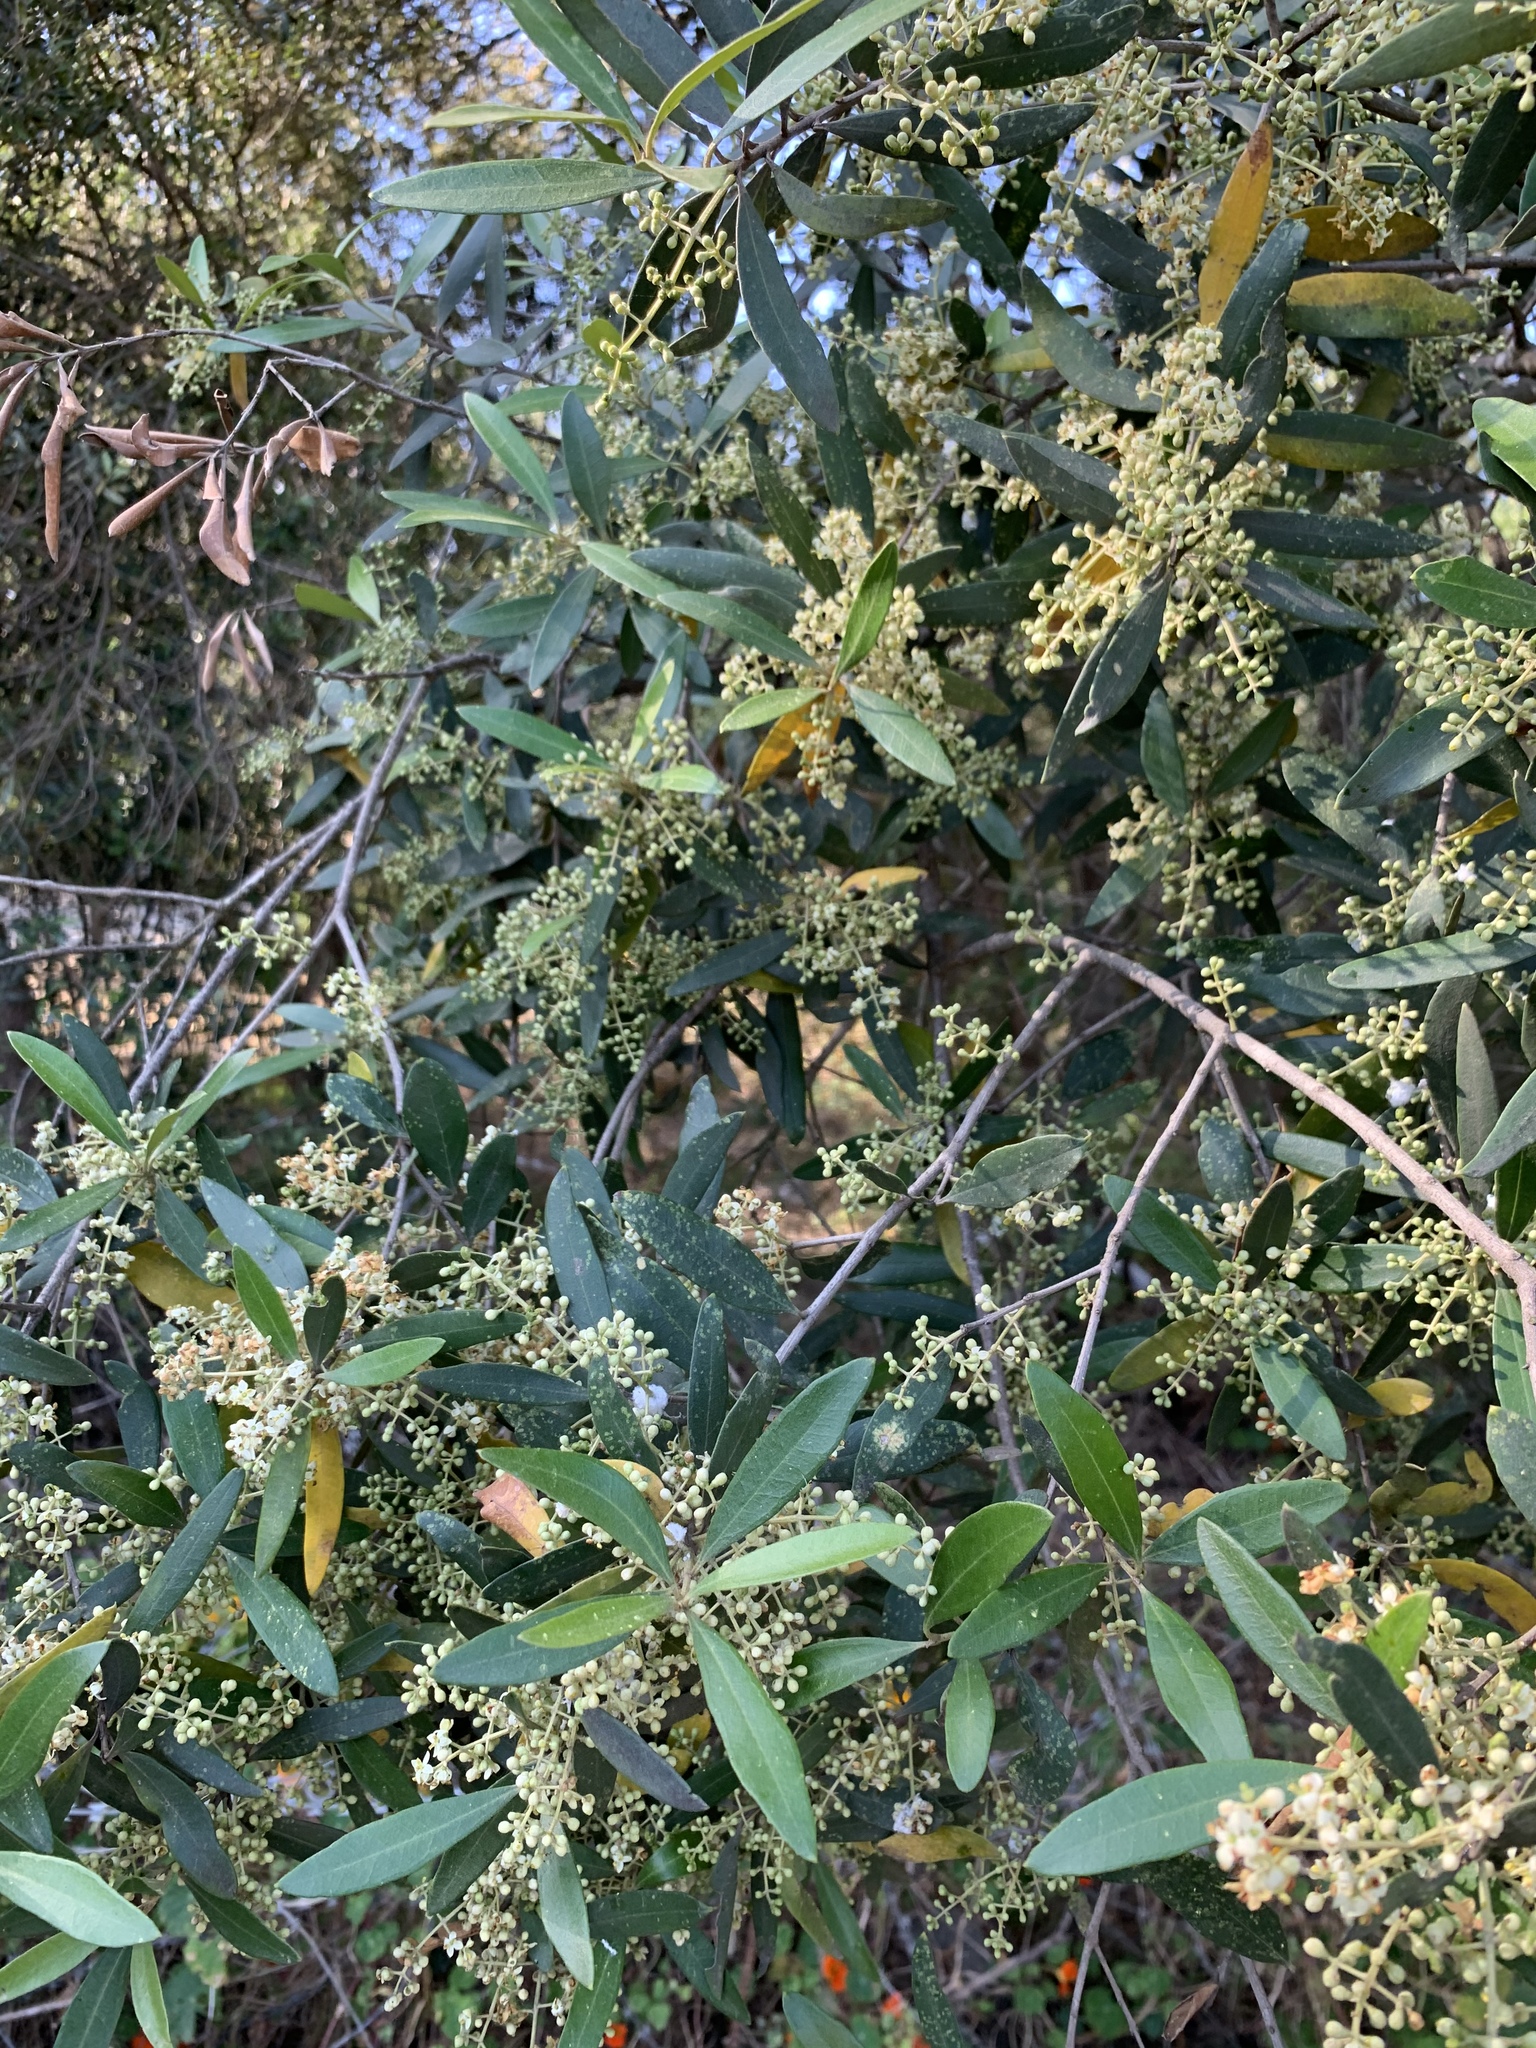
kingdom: Plantae
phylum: Tracheophyta
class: Magnoliopsida
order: Lamiales
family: Oleaceae
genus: Olea
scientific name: Olea europaea
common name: Olive
